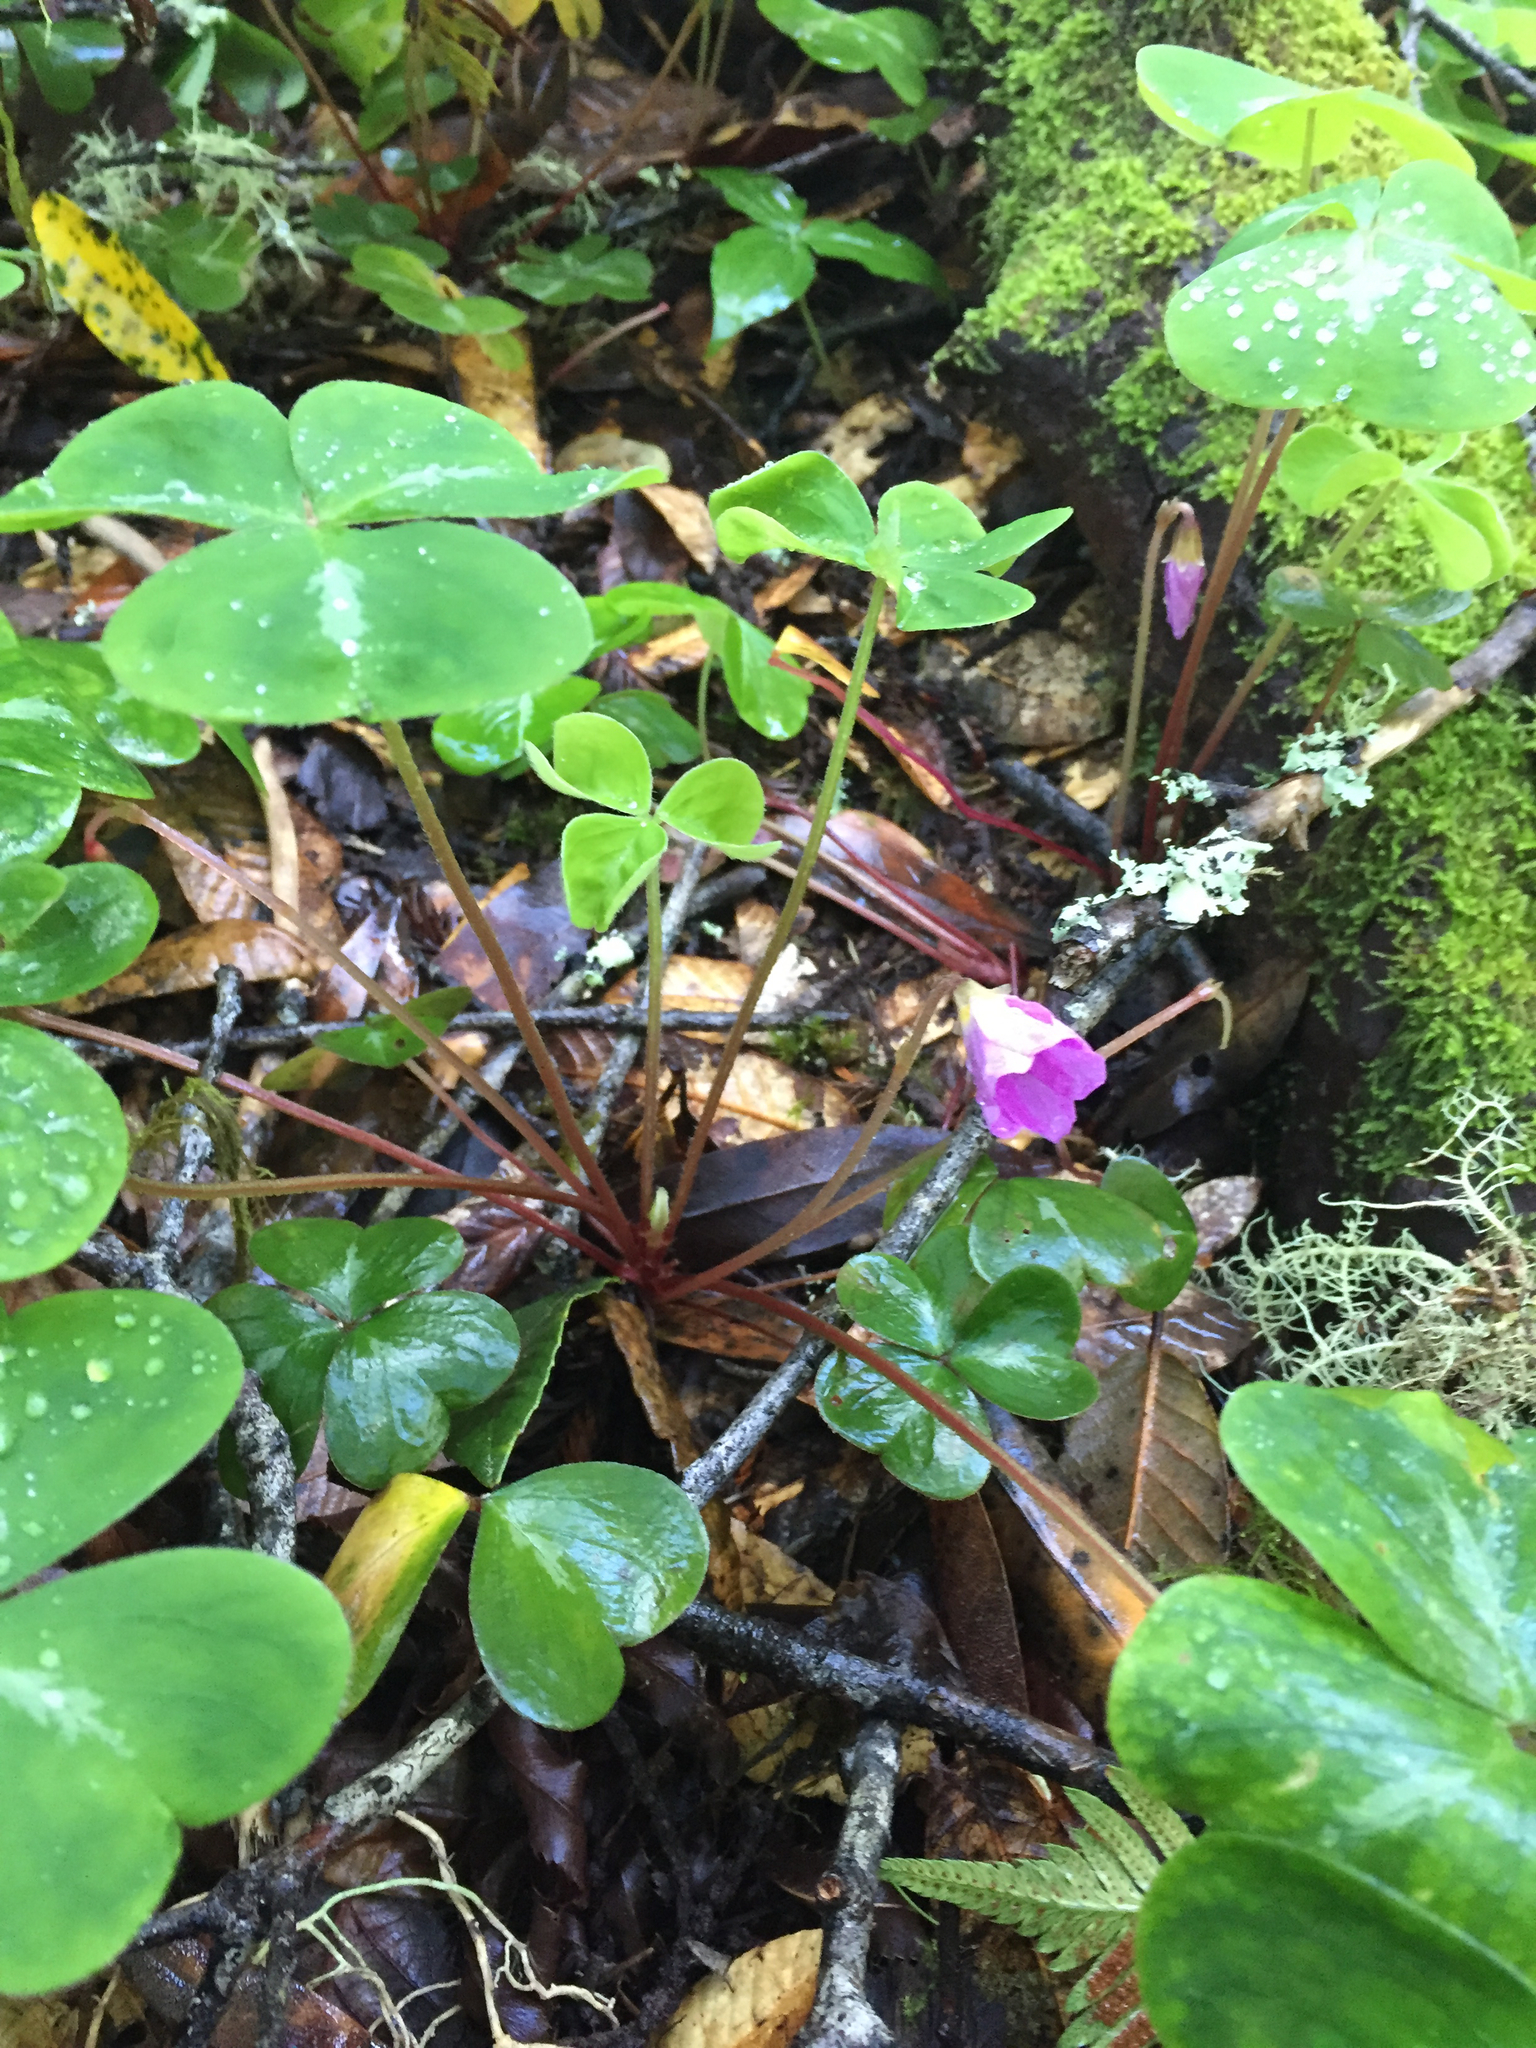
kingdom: Plantae
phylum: Tracheophyta
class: Magnoliopsida
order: Oxalidales
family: Oxalidaceae
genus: Oxalis
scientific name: Oxalis oregana
